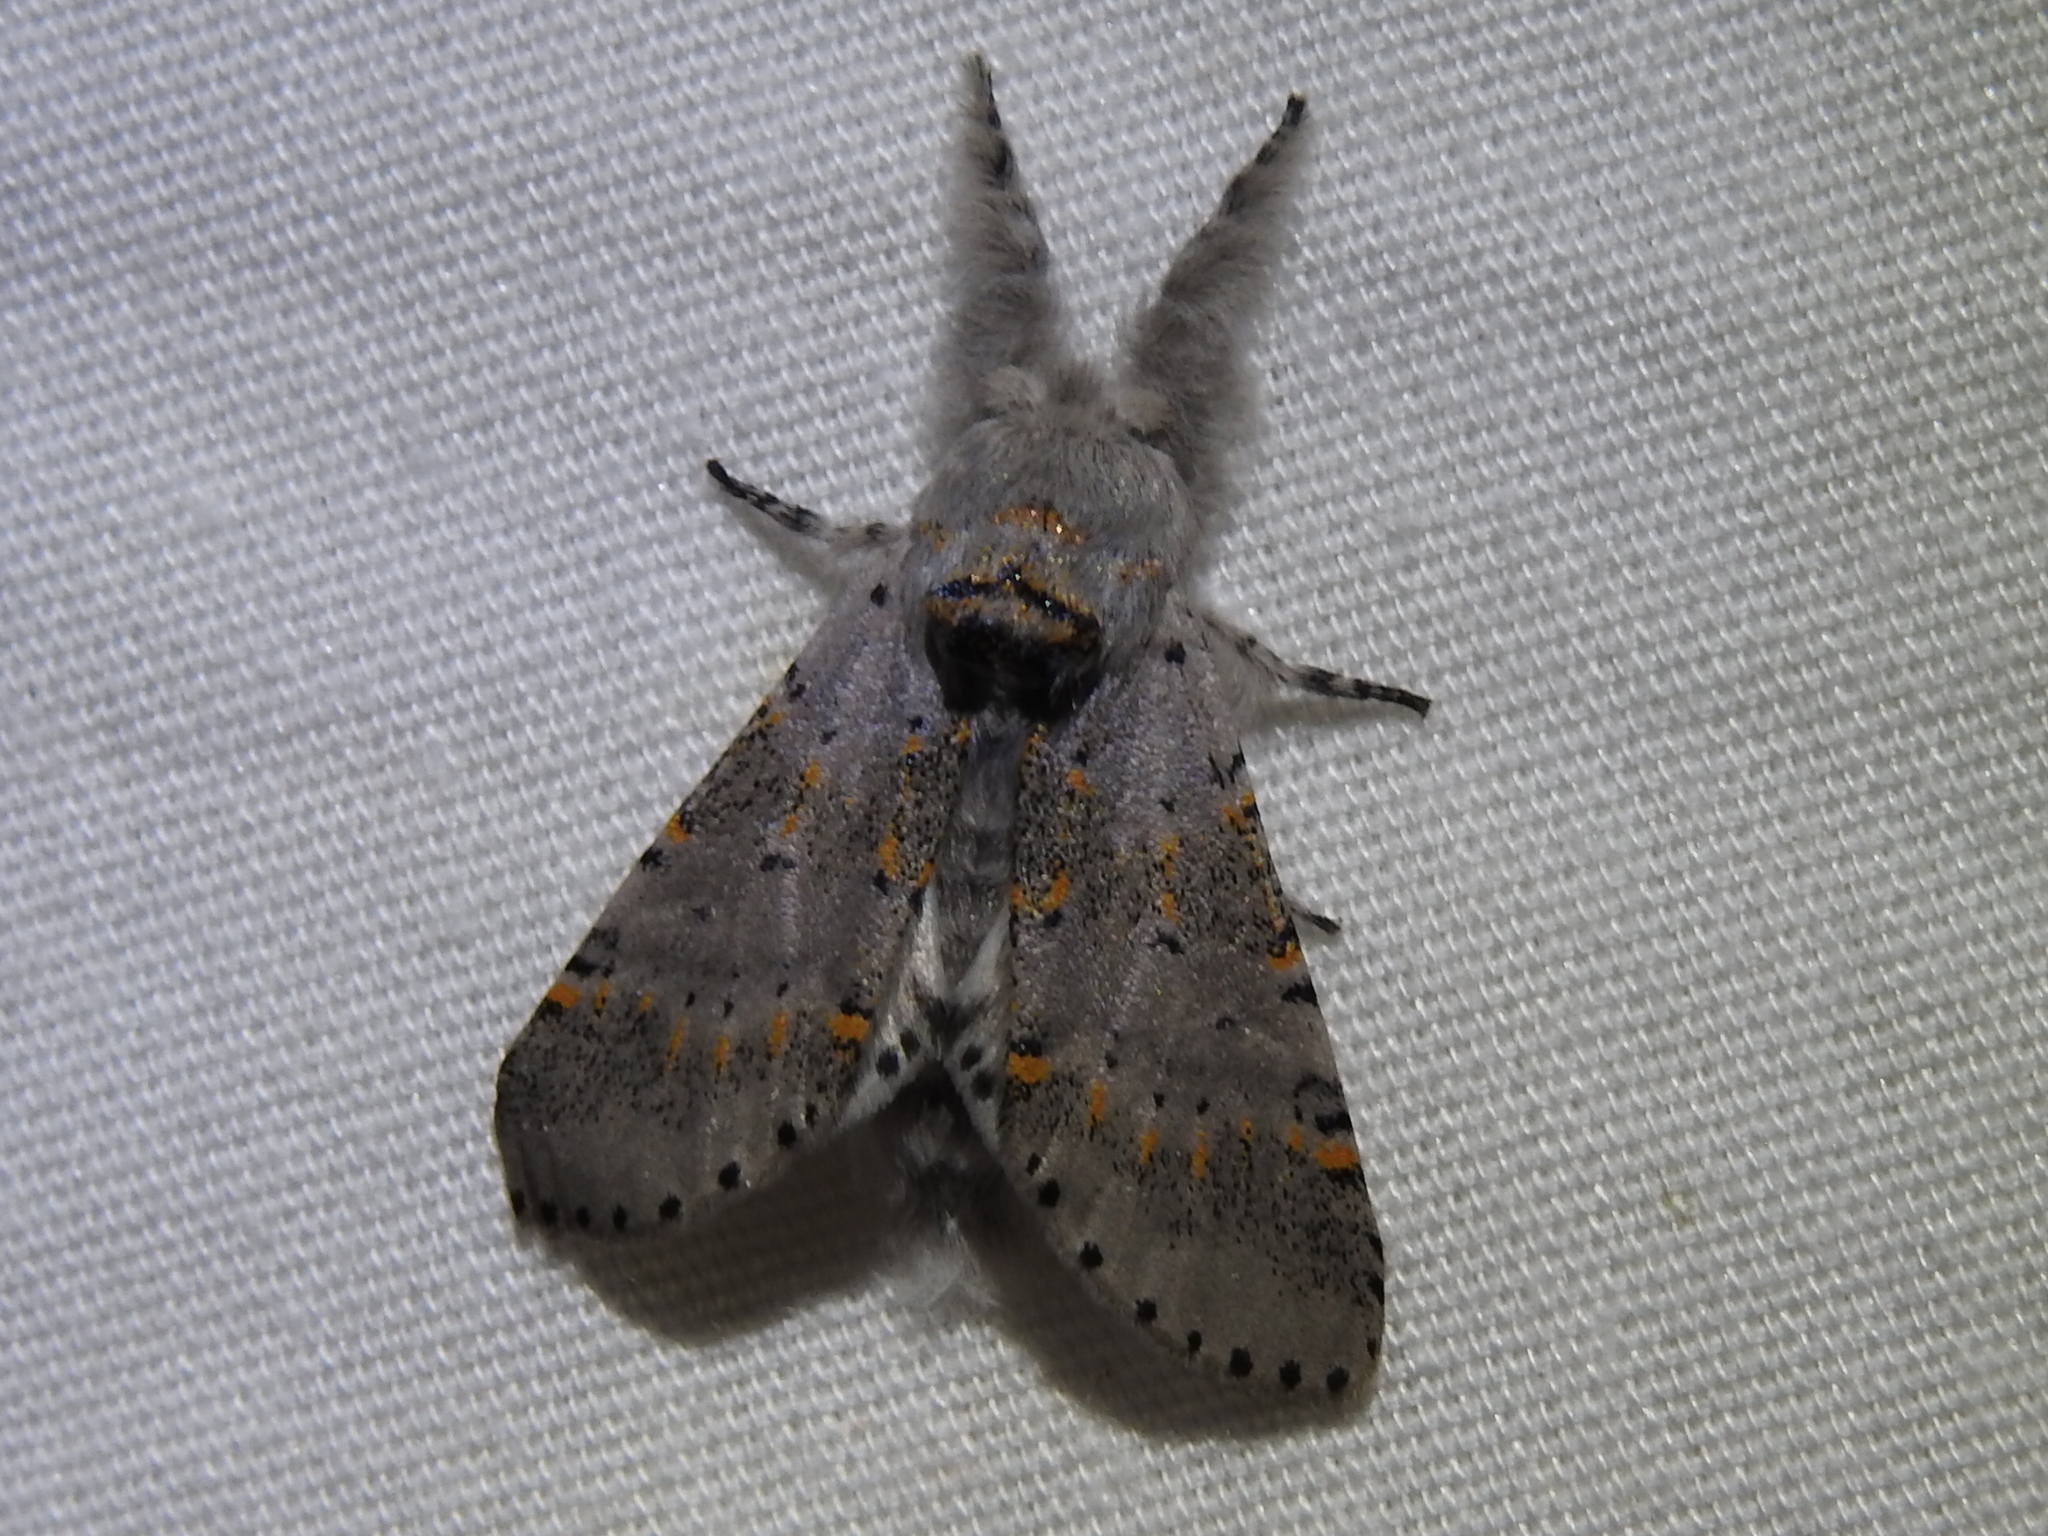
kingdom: Animalia
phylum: Arthropoda
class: Insecta
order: Lepidoptera
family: Notodontidae
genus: Furcula
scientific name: Furcula cinerea
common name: Gray furcula
